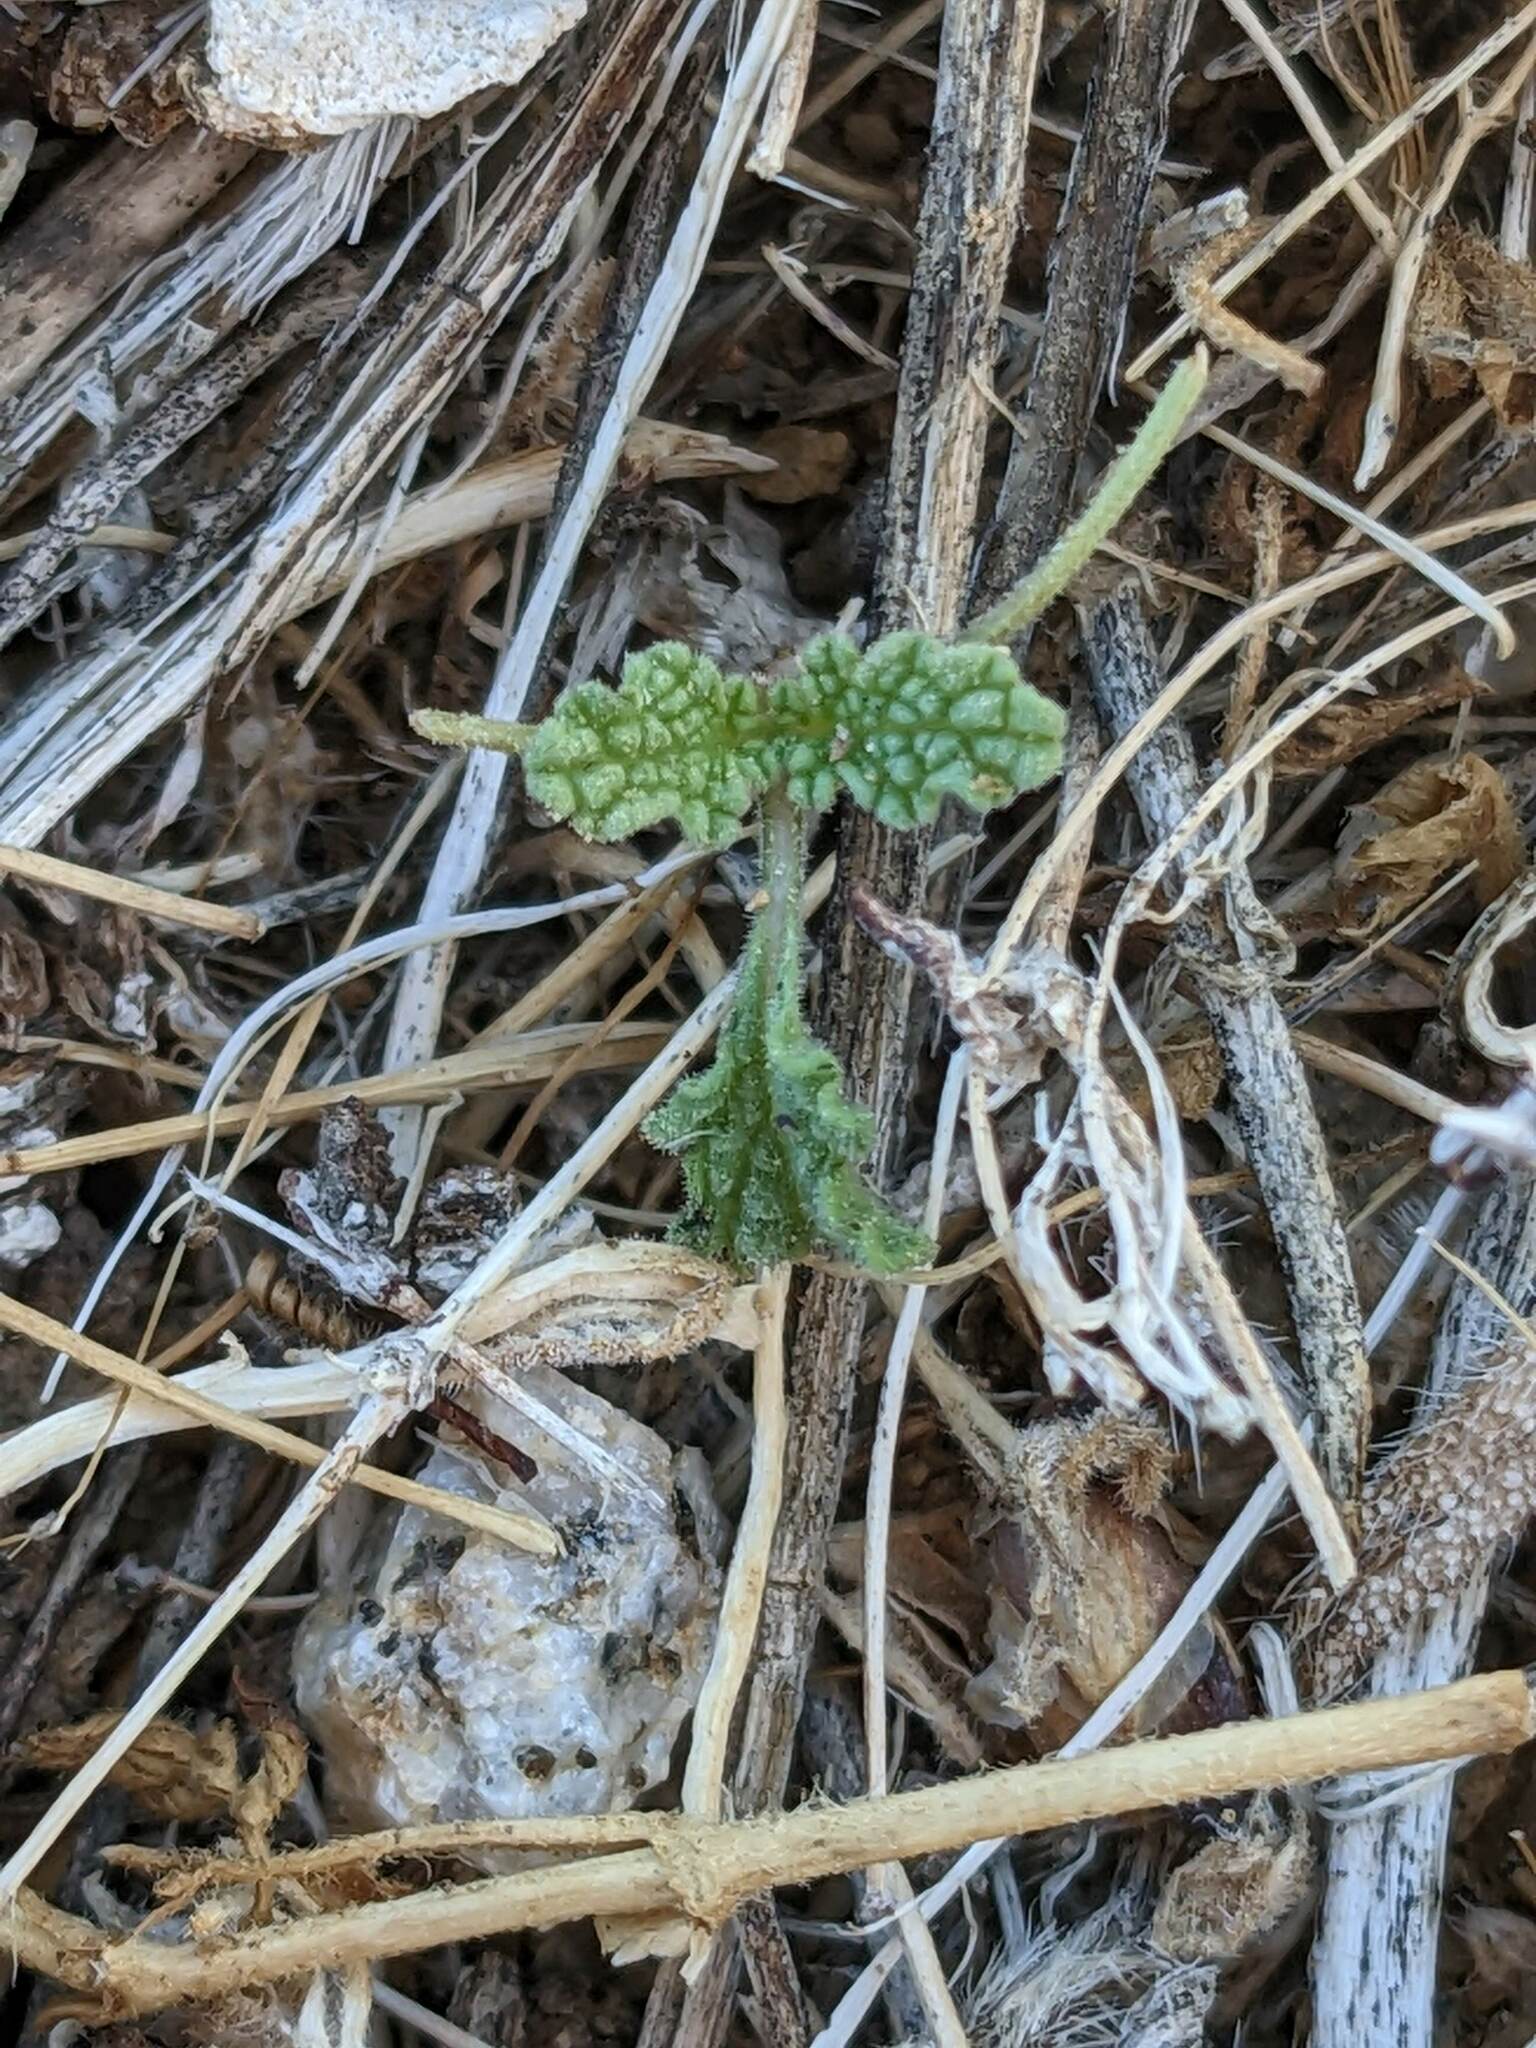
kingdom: Plantae
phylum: Tracheophyta
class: Magnoliopsida
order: Lamiales
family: Lamiaceae
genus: Salvia
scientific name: Salvia columbariae
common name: Chia
